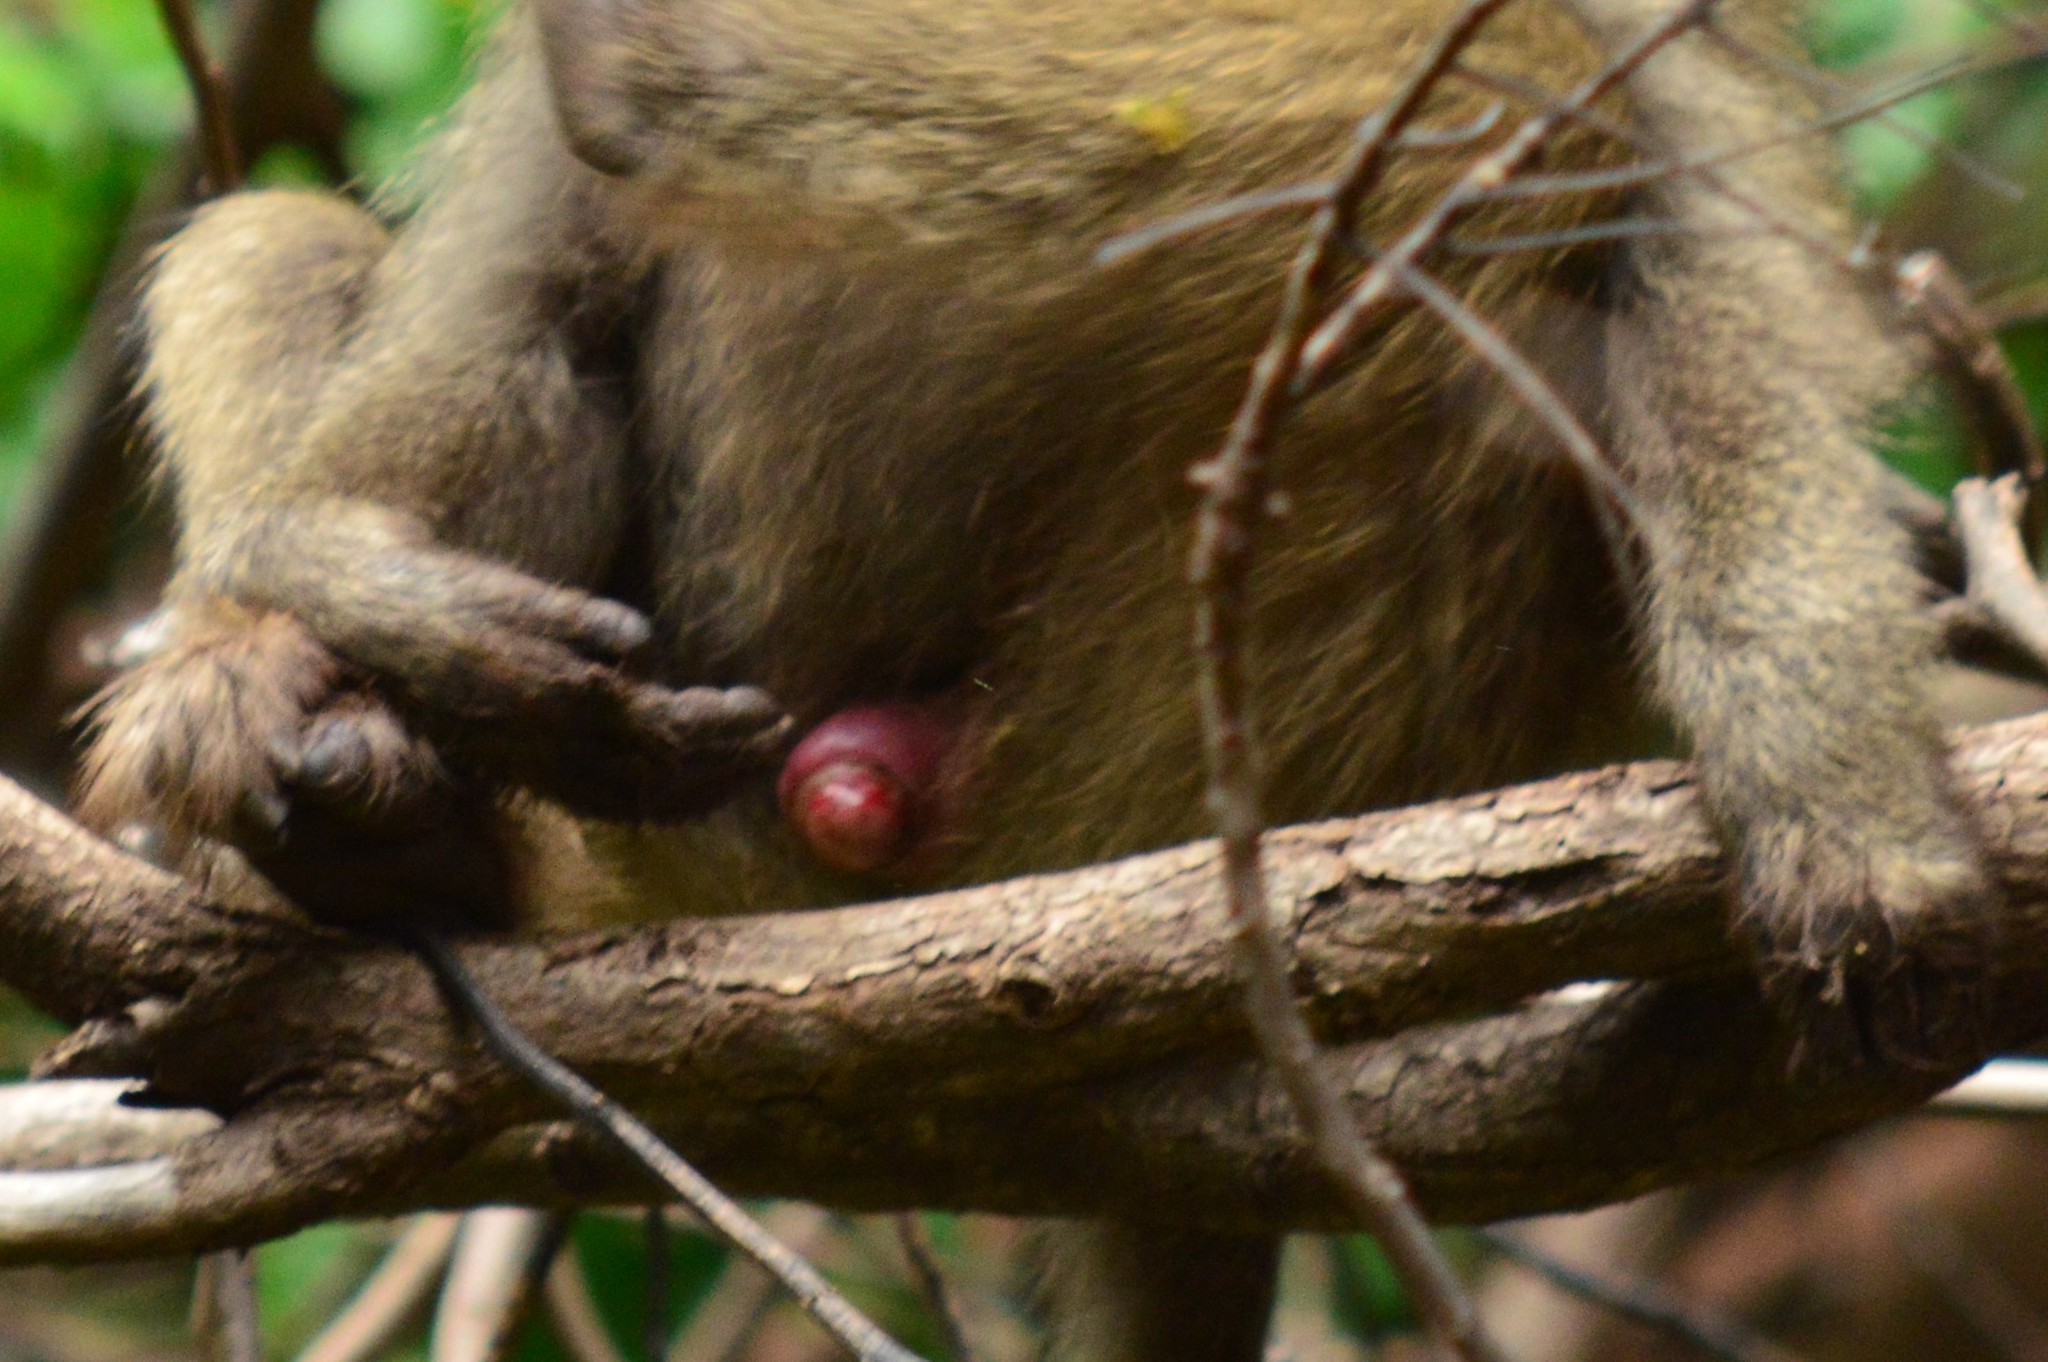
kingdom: Animalia
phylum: Chordata
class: Mammalia
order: Primates
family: Cercopithecidae
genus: Papio
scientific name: Papio anubis
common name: Olive baboon
